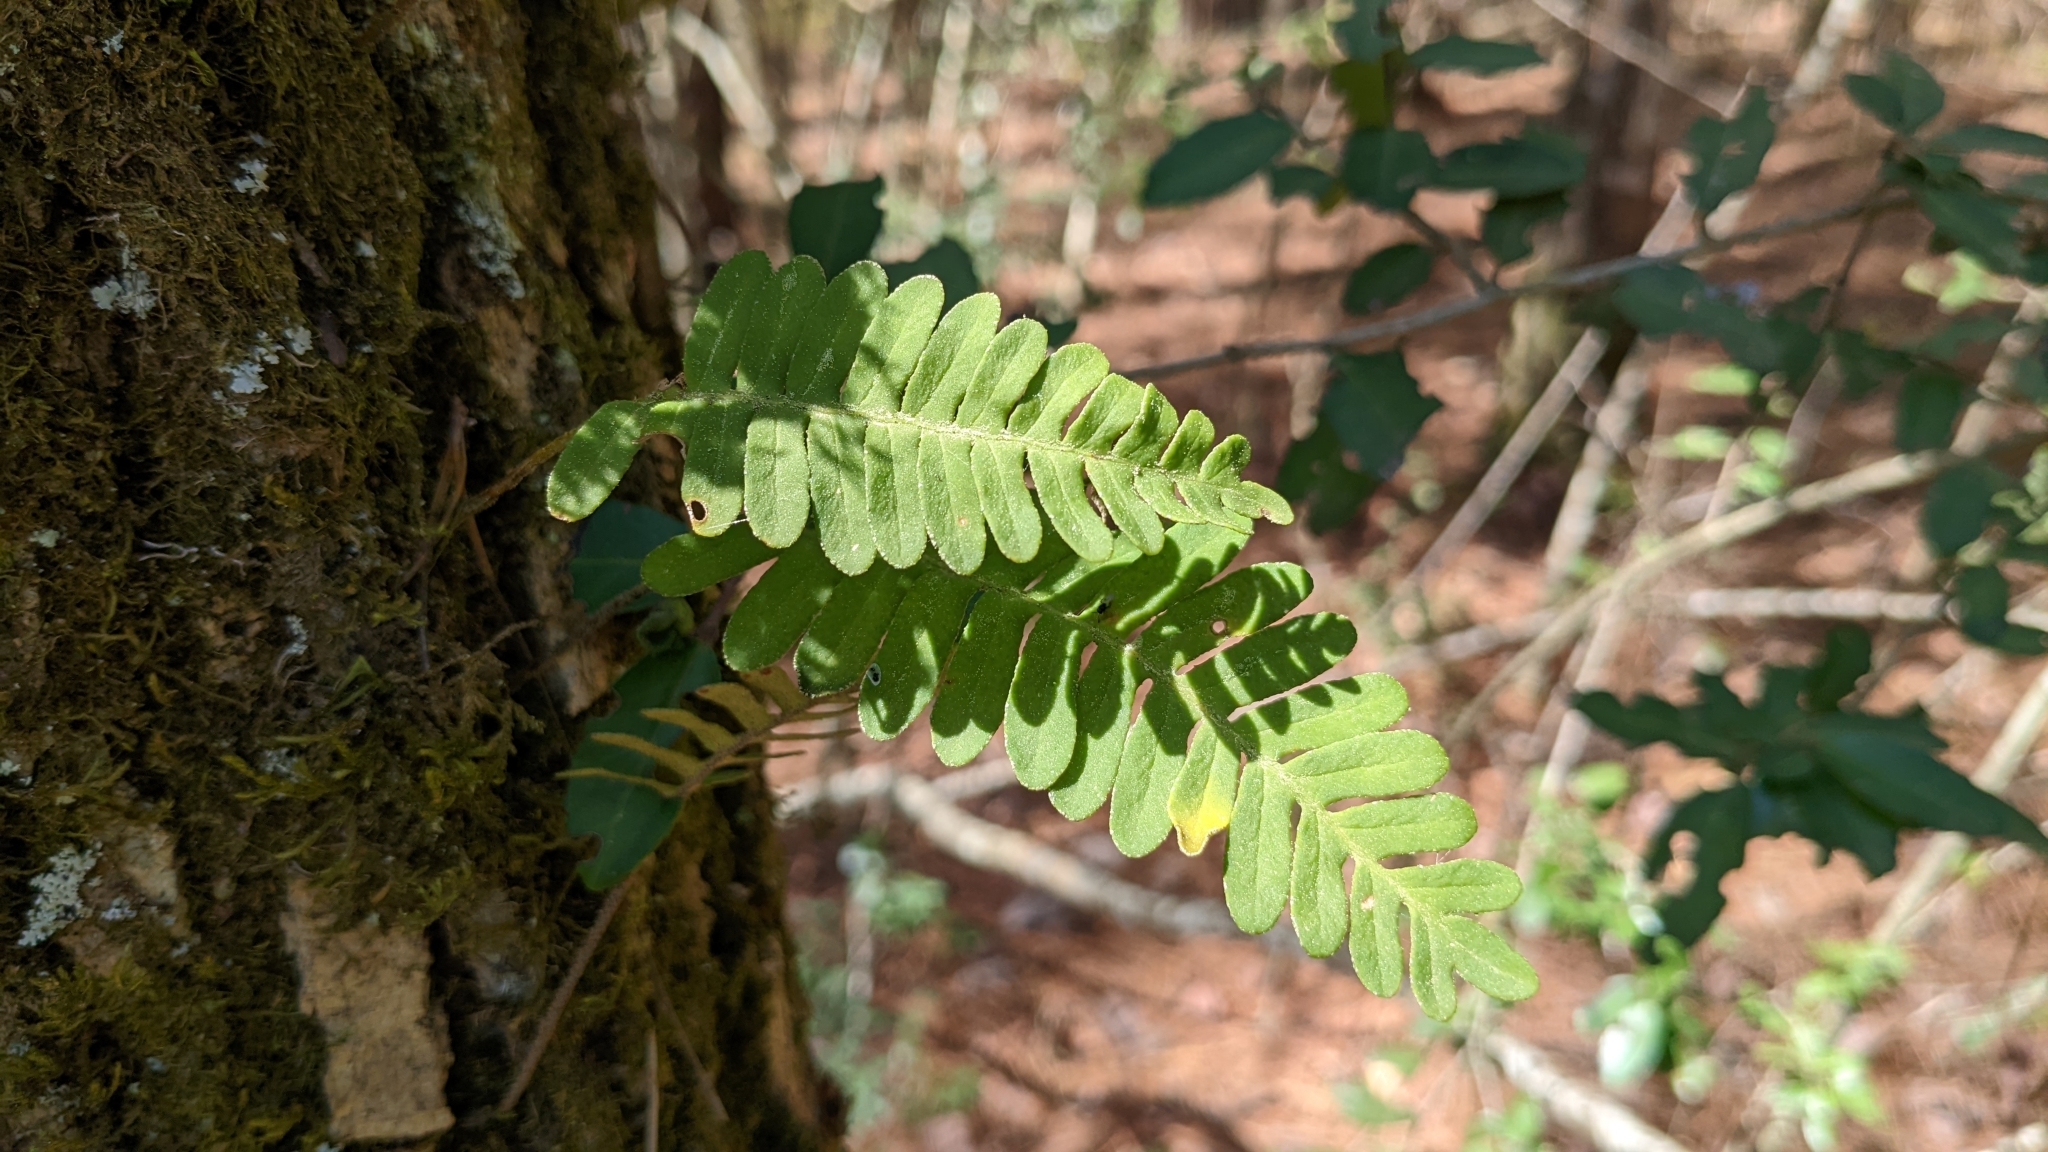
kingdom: Plantae
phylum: Tracheophyta
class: Polypodiopsida
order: Polypodiales
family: Polypodiaceae
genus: Pleopeltis
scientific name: Pleopeltis michauxiana
